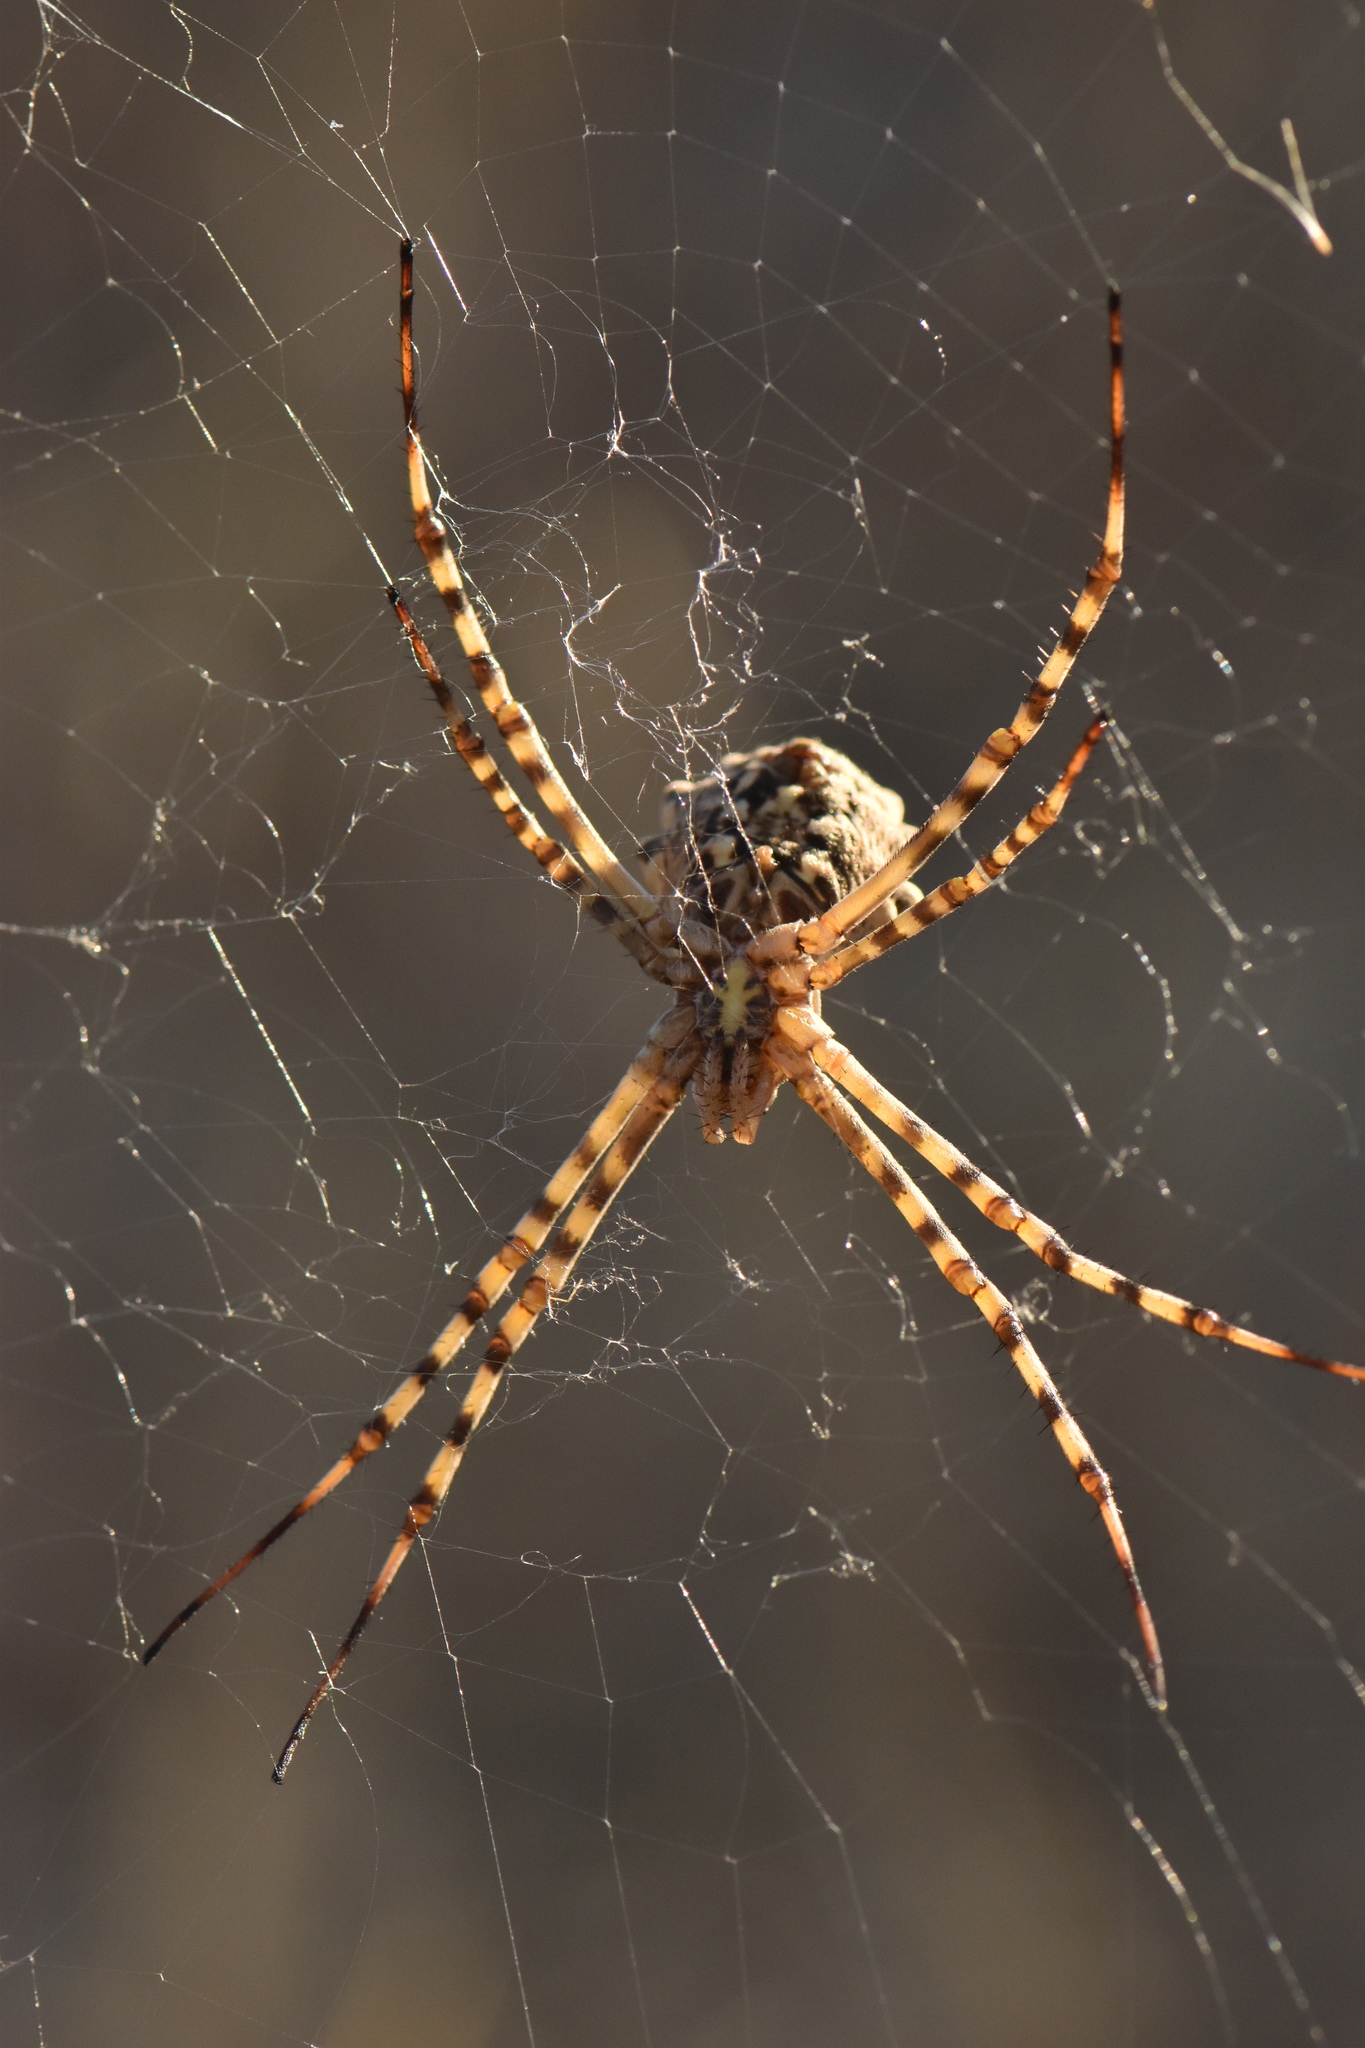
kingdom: Animalia
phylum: Arthropoda
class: Arachnida
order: Araneae
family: Araneidae
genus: Argiope
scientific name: Argiope lobata
